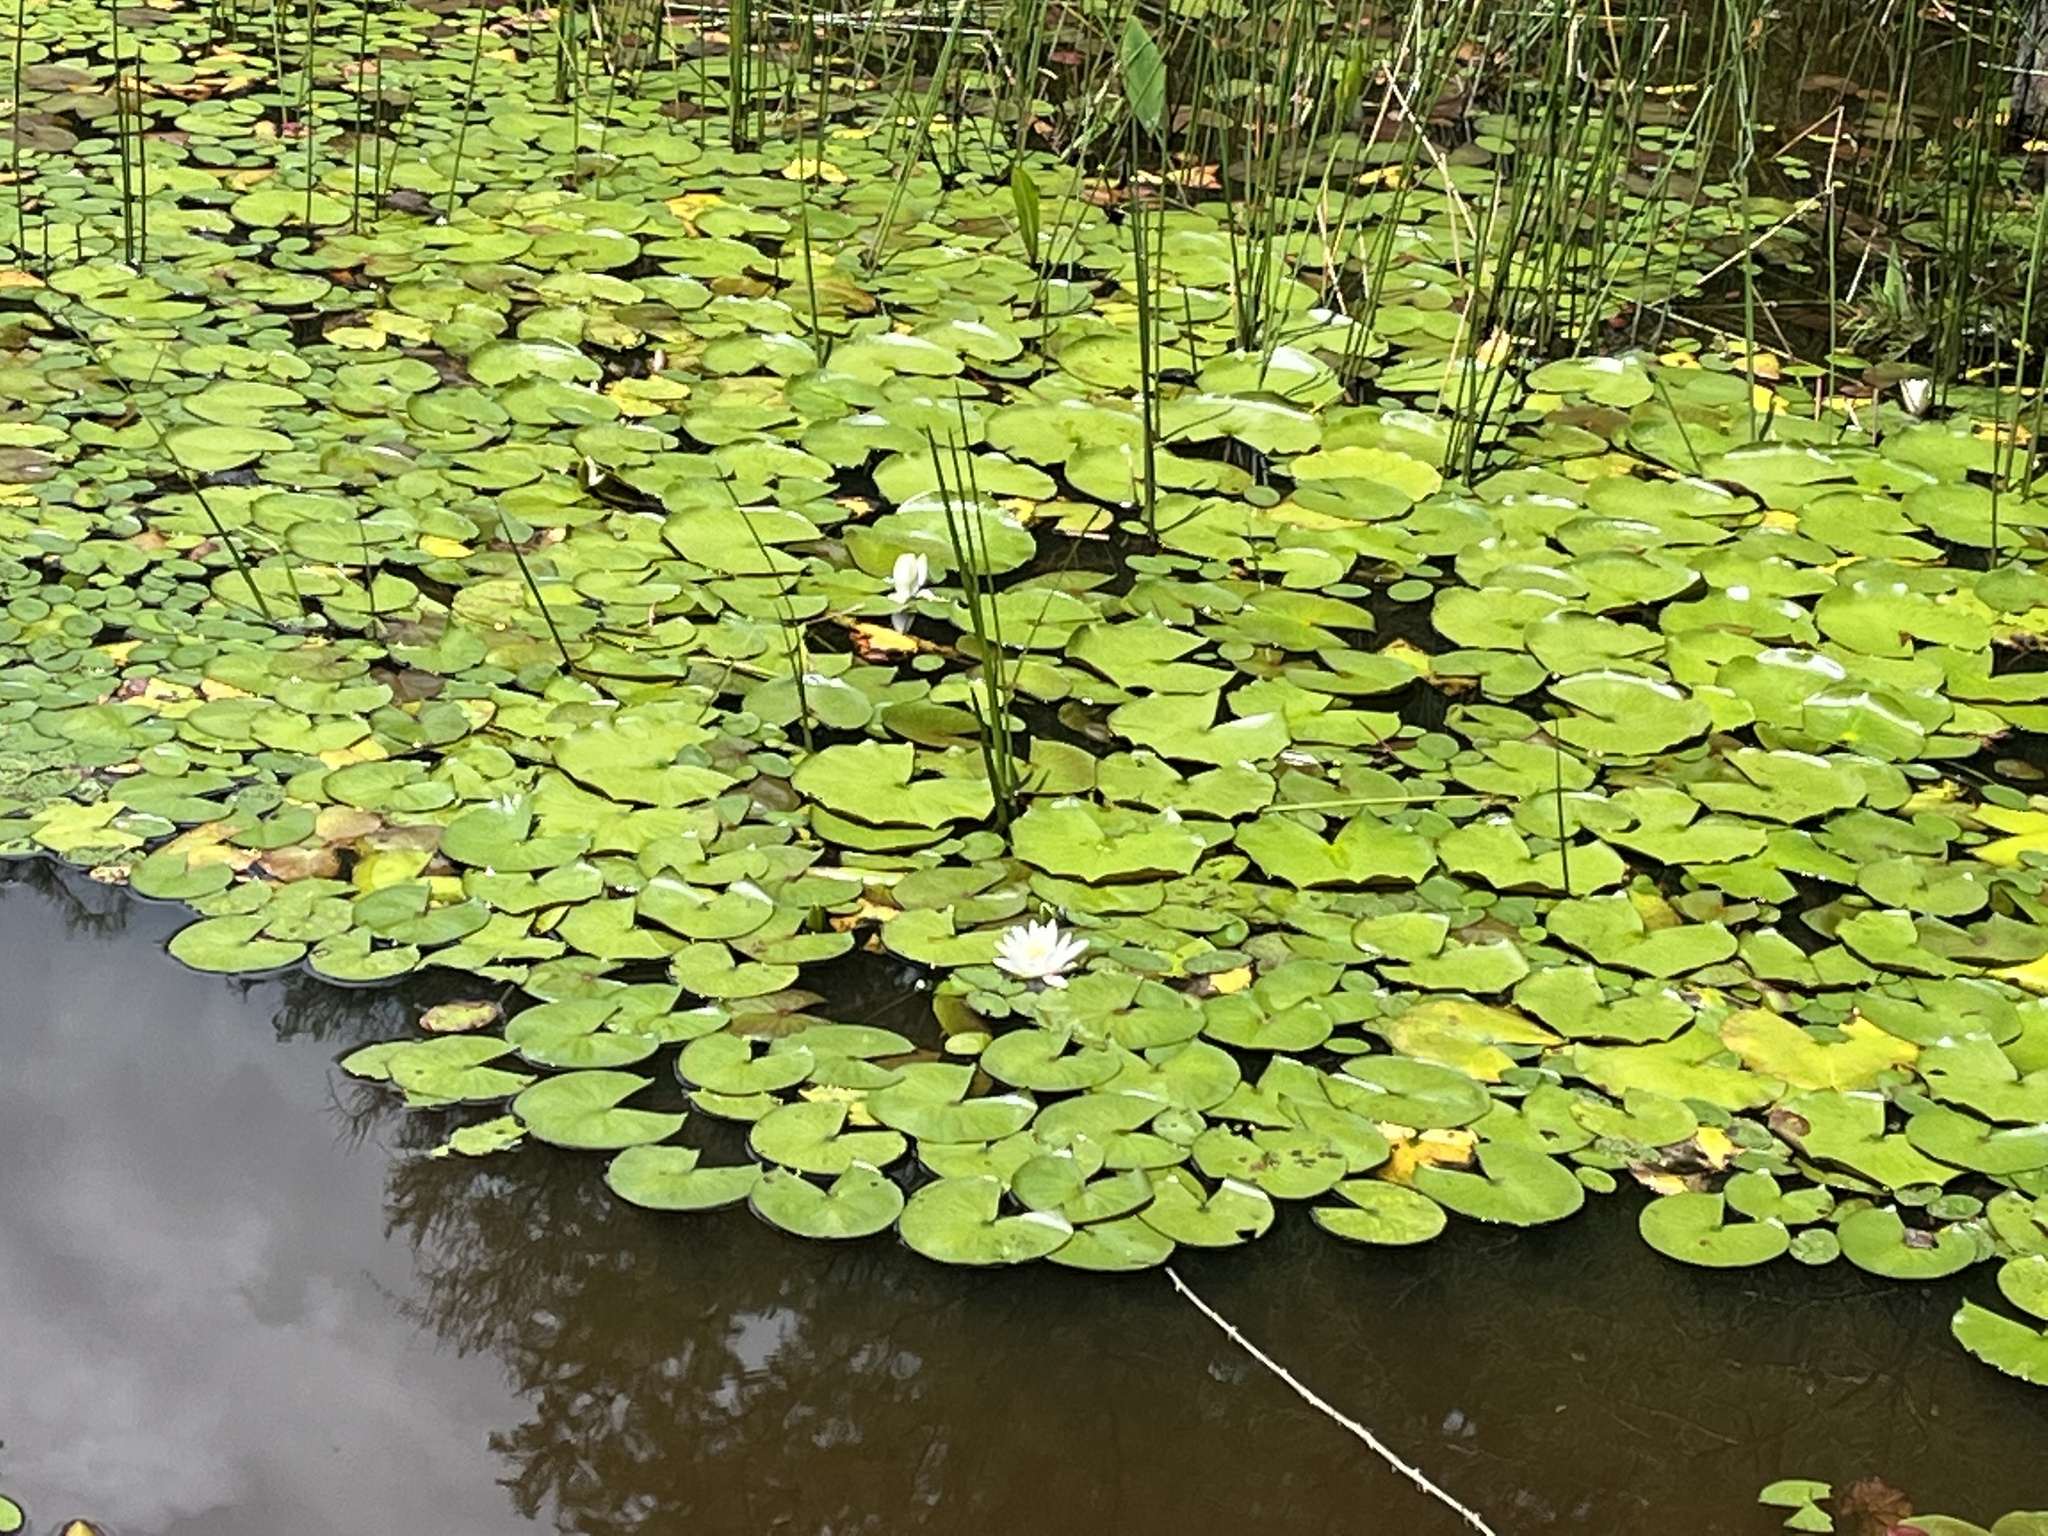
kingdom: Plantae
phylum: Tracheophyta
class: Magnoliopsida
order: Nymphaeales
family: Nymphaeaceae
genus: Nymphaea
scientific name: Nymphaea odorata
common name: Fragrant water-lily
